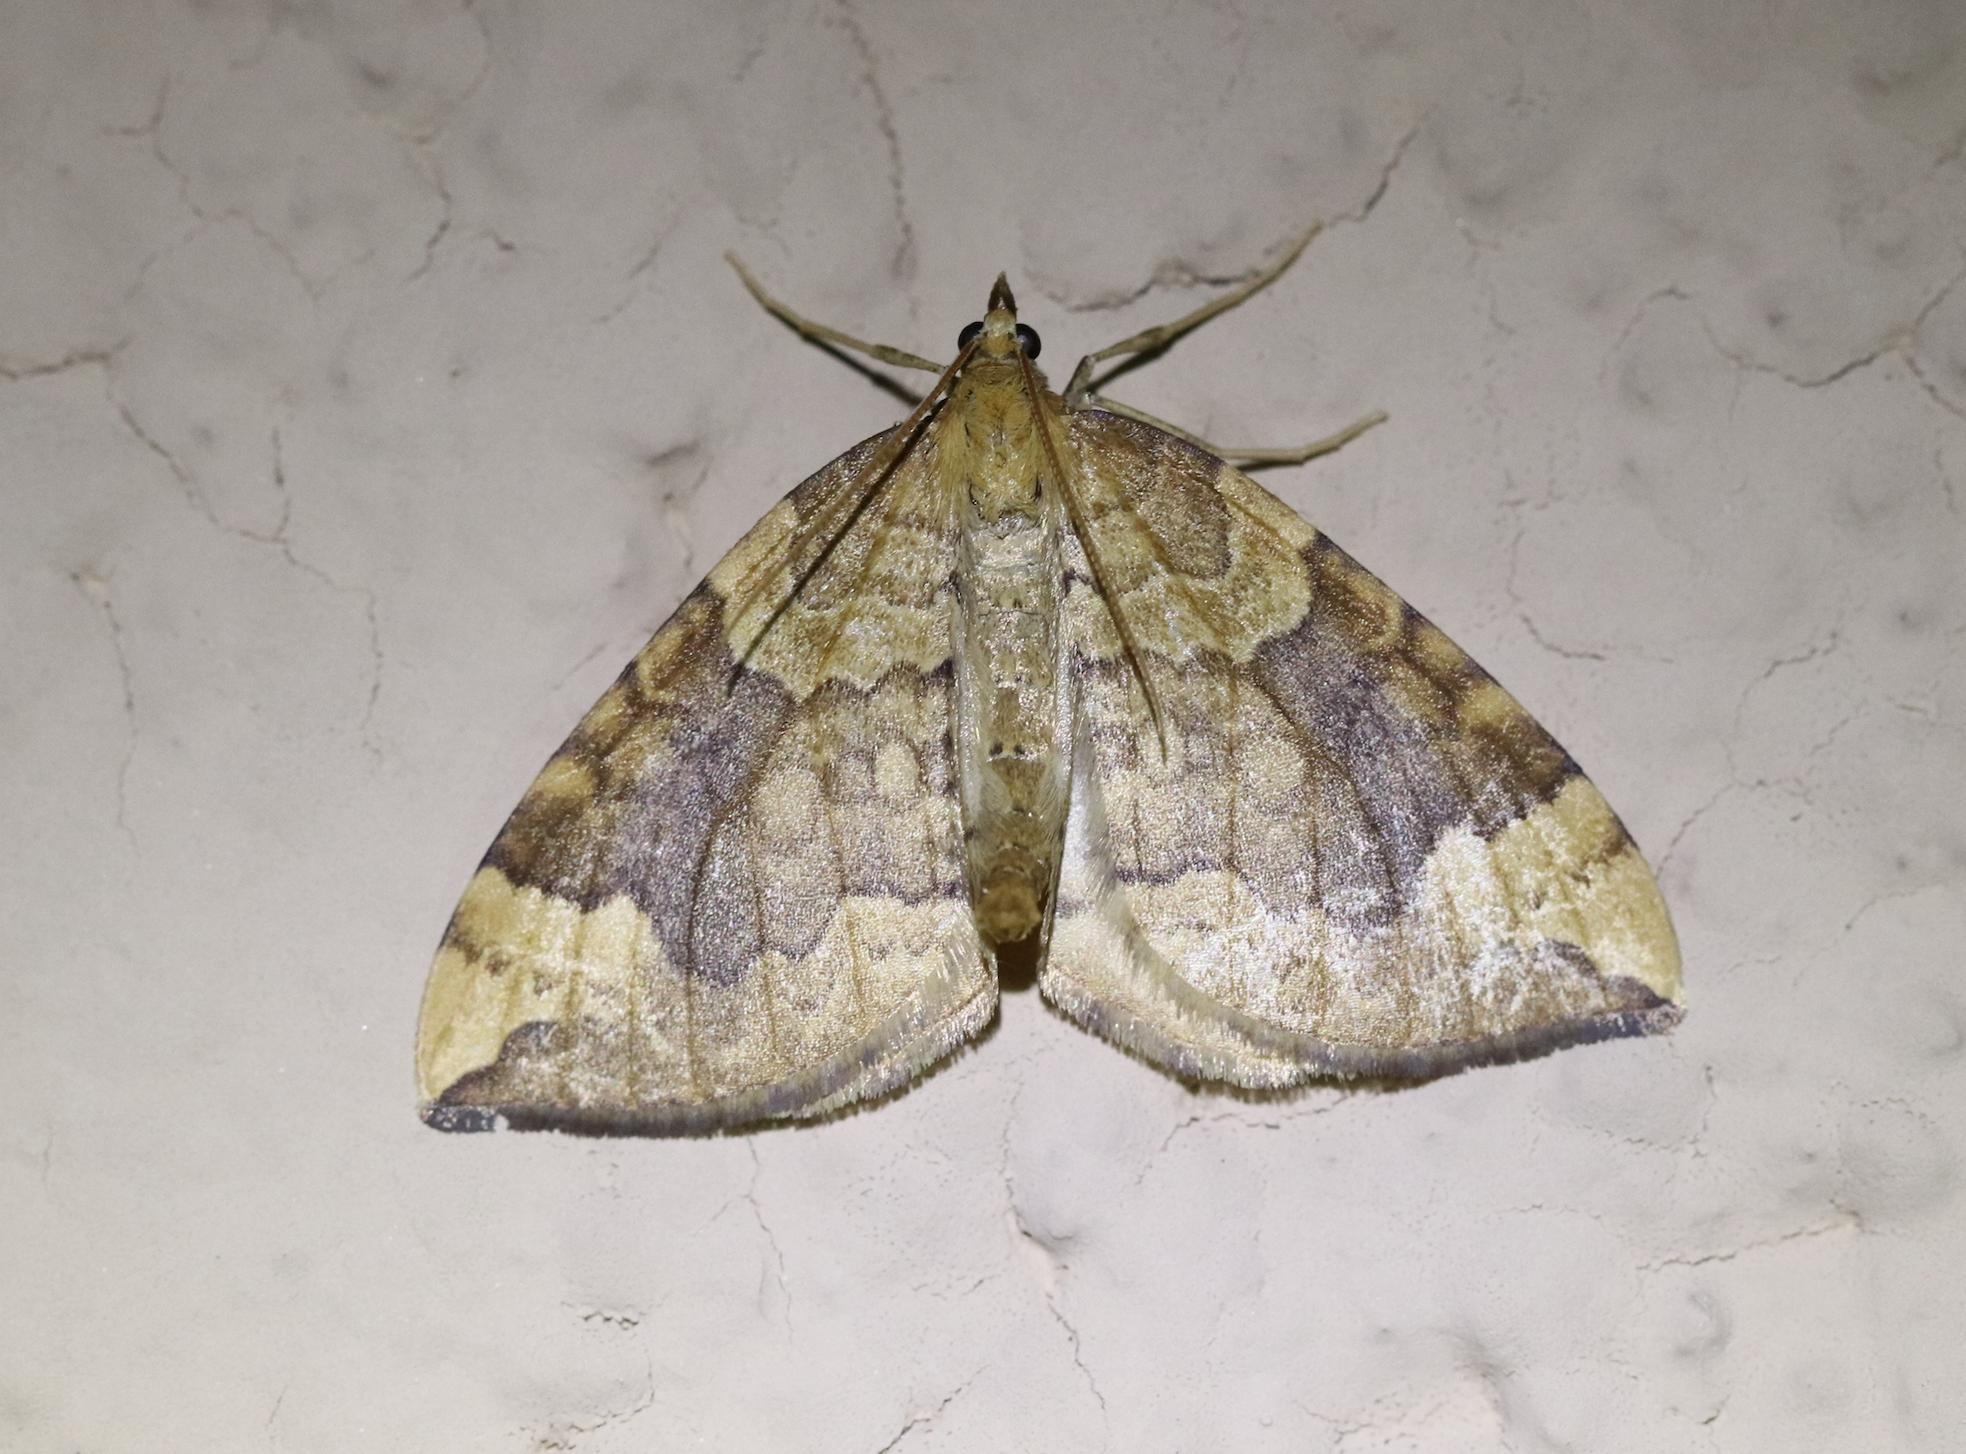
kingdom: Animalia
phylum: Arthropoda
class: Insecta
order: Lepidoptera
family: Geometridae
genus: Eulithis
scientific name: Eulithis populata
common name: Northern spinach
